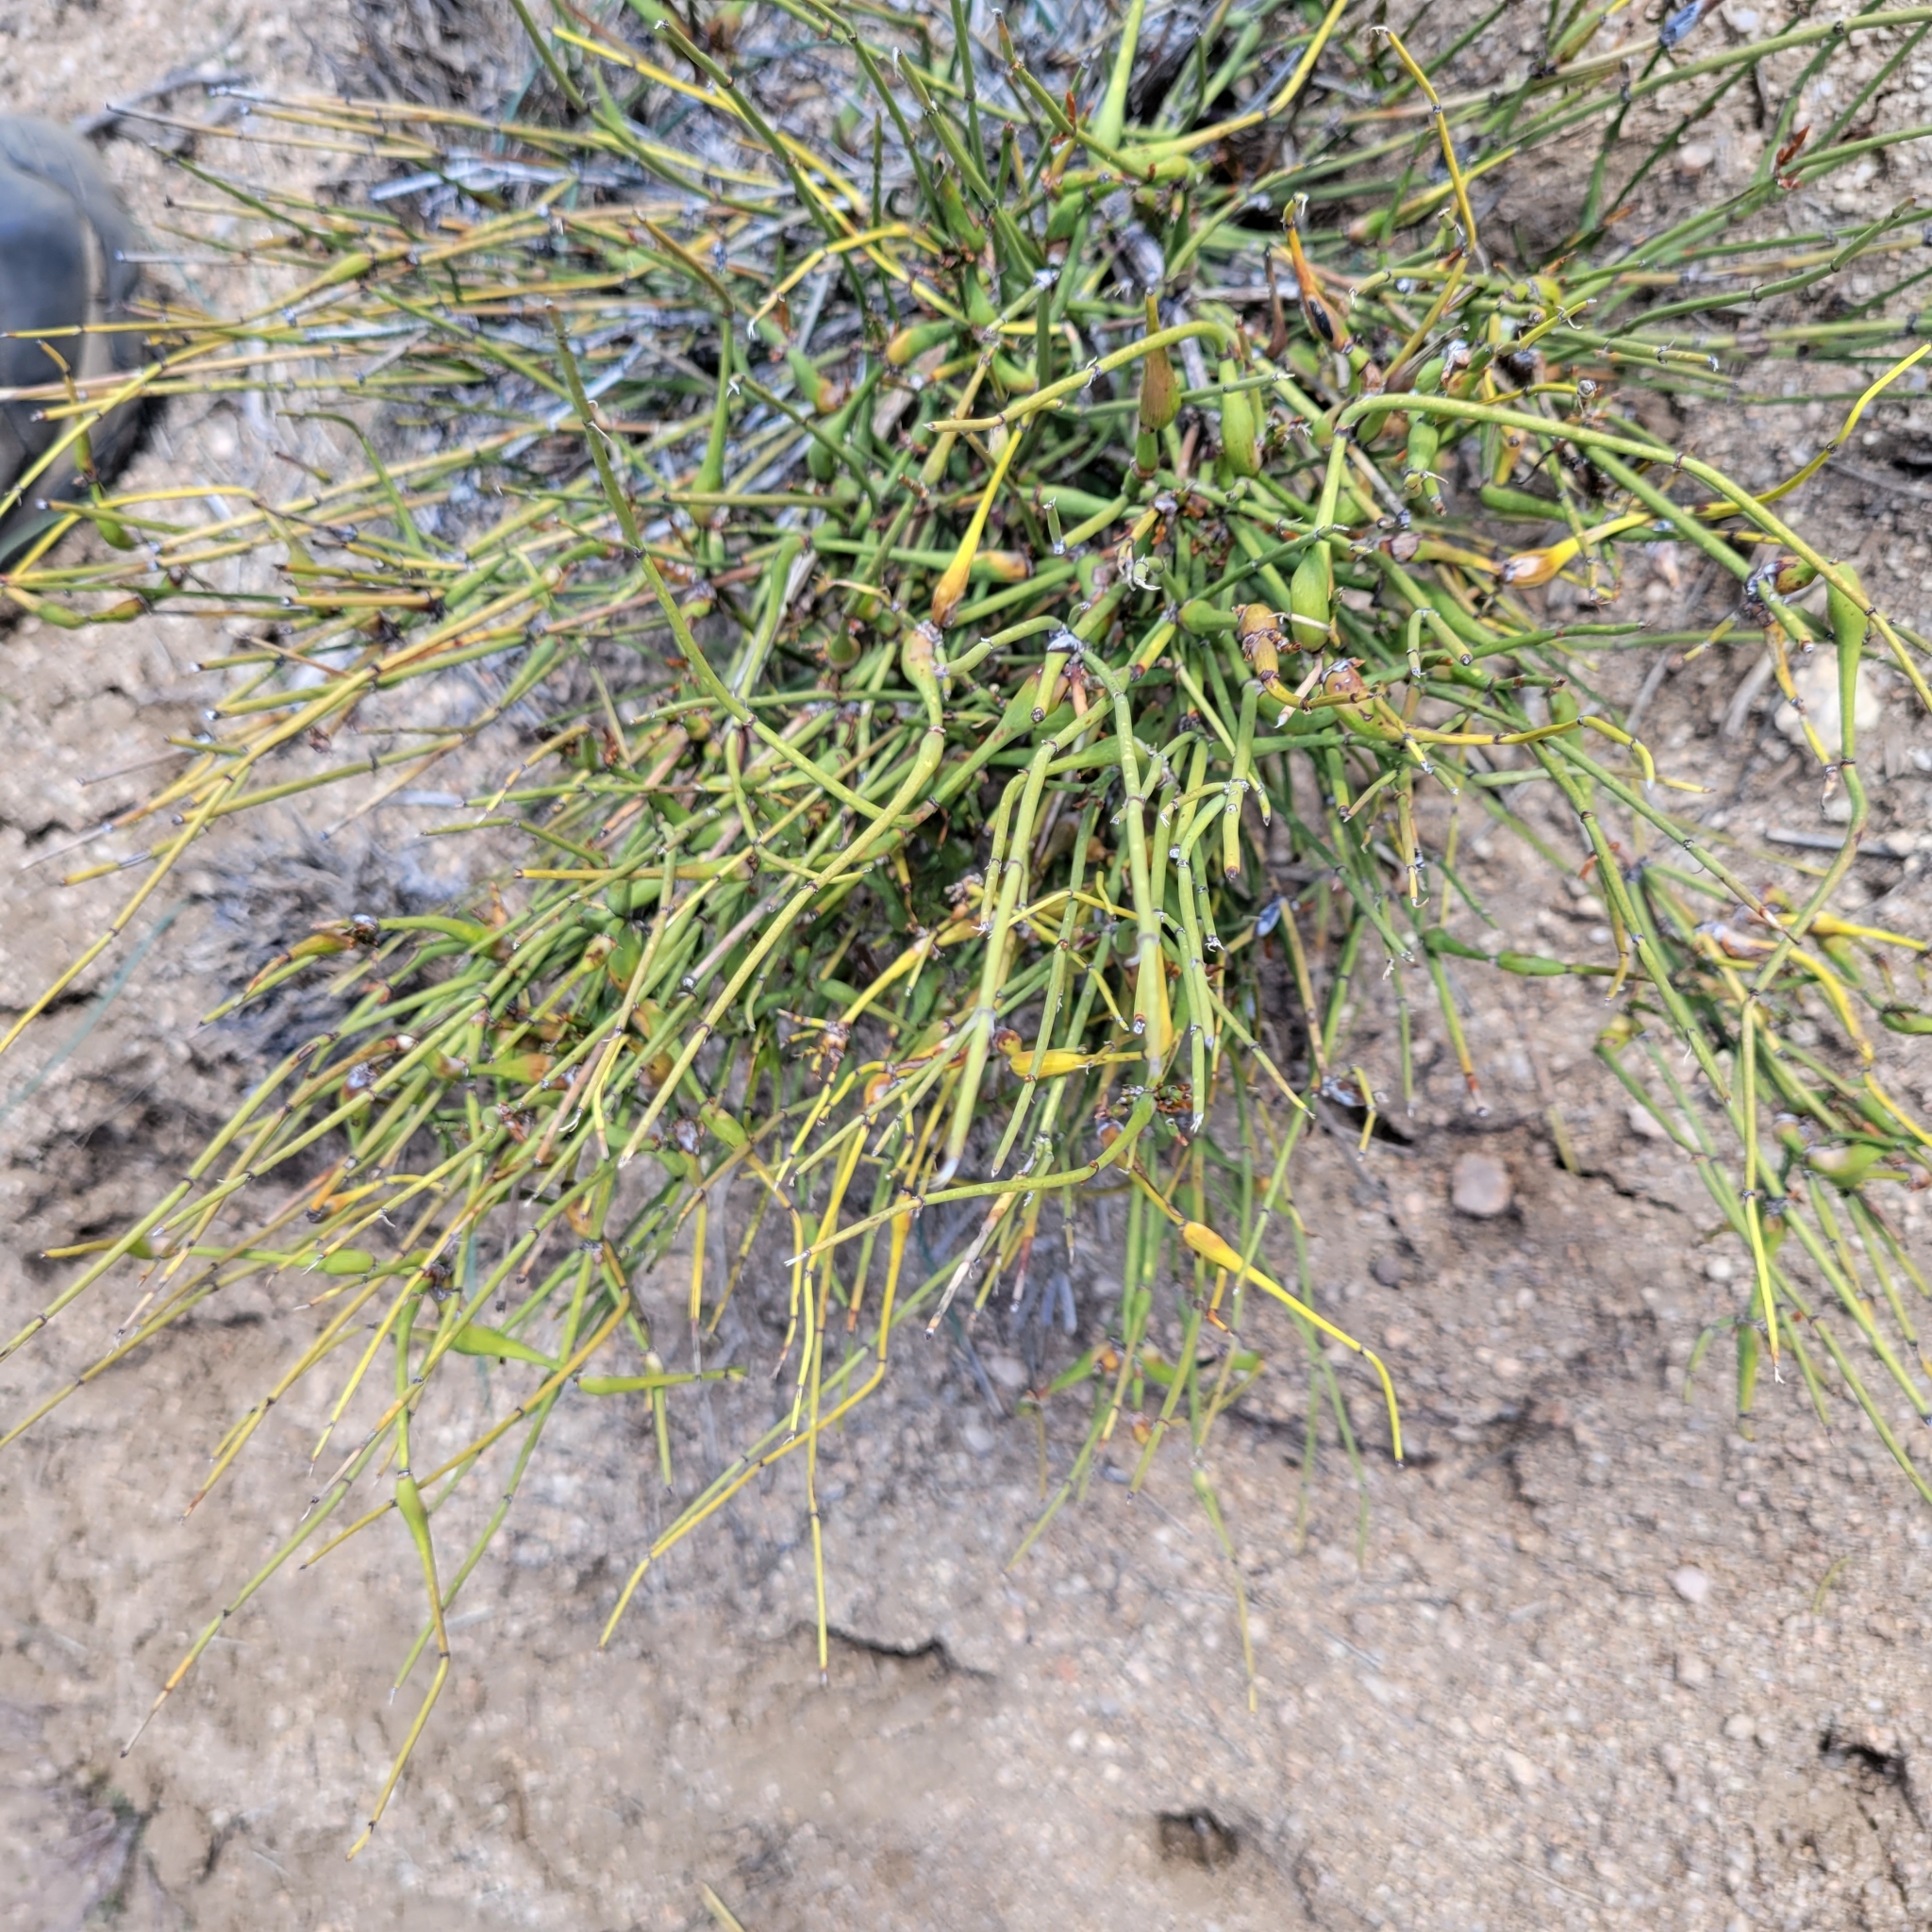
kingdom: Plantae
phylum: Tracheophyta
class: Gnetopsida
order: Ephedrales
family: Ephedraceae
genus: Ephedra
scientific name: Ephedra viridis
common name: Green ephedra
